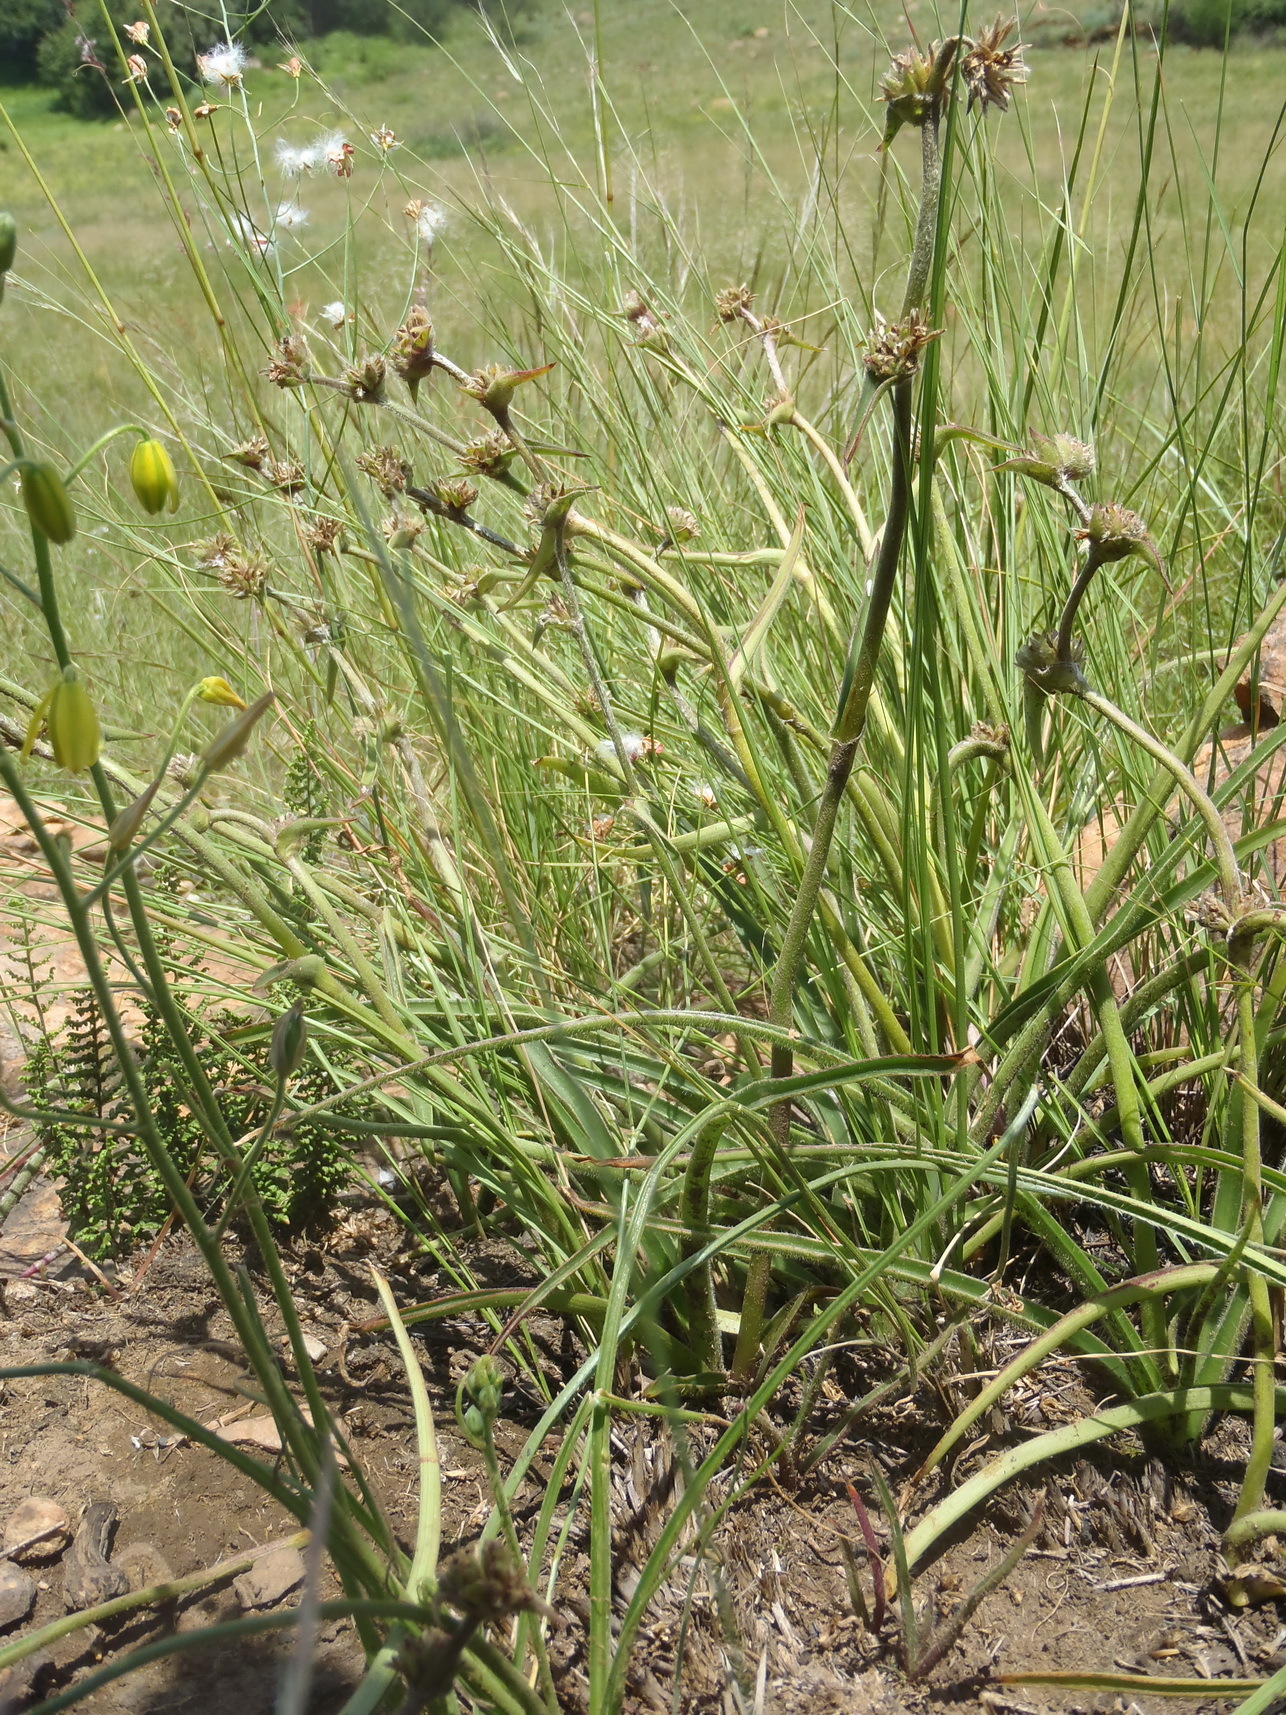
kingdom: Plantae
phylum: Tracheophyta
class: Liliopsida
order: Commelinales
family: Commelinaceae
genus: Cyanotis
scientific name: Cyanotis speciosa
